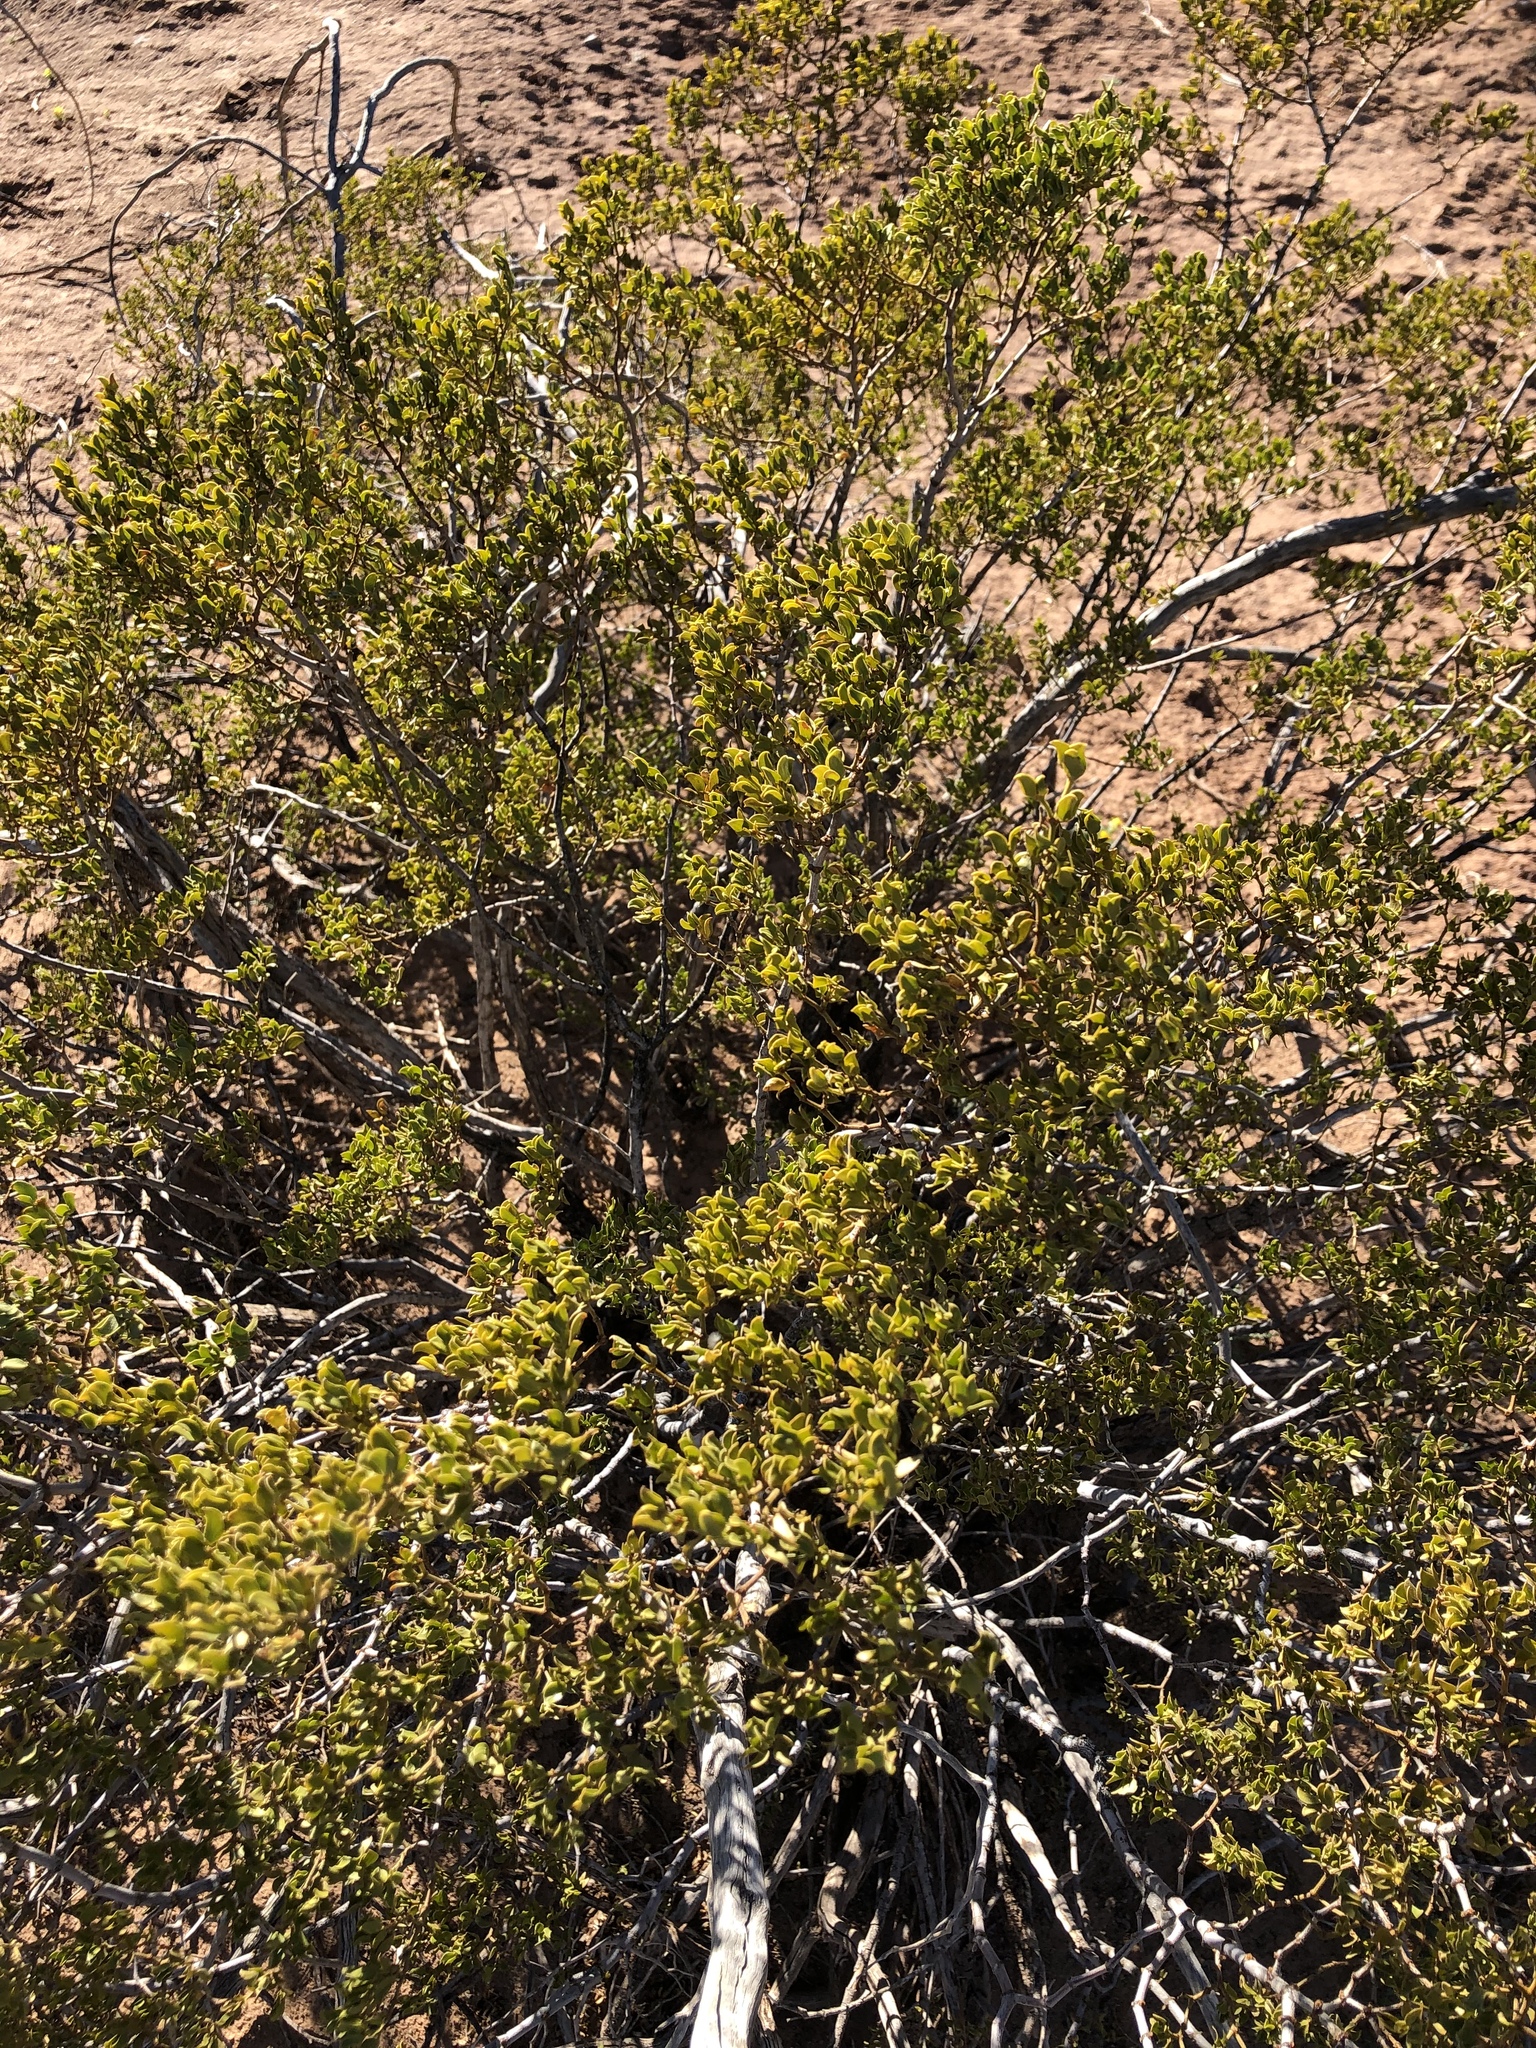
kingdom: Plantae
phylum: Tracheophyta
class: Magnoliopsida
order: Zygophyllales
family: Zygophyllaceae
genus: Larrea
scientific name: Larrea tridentata
